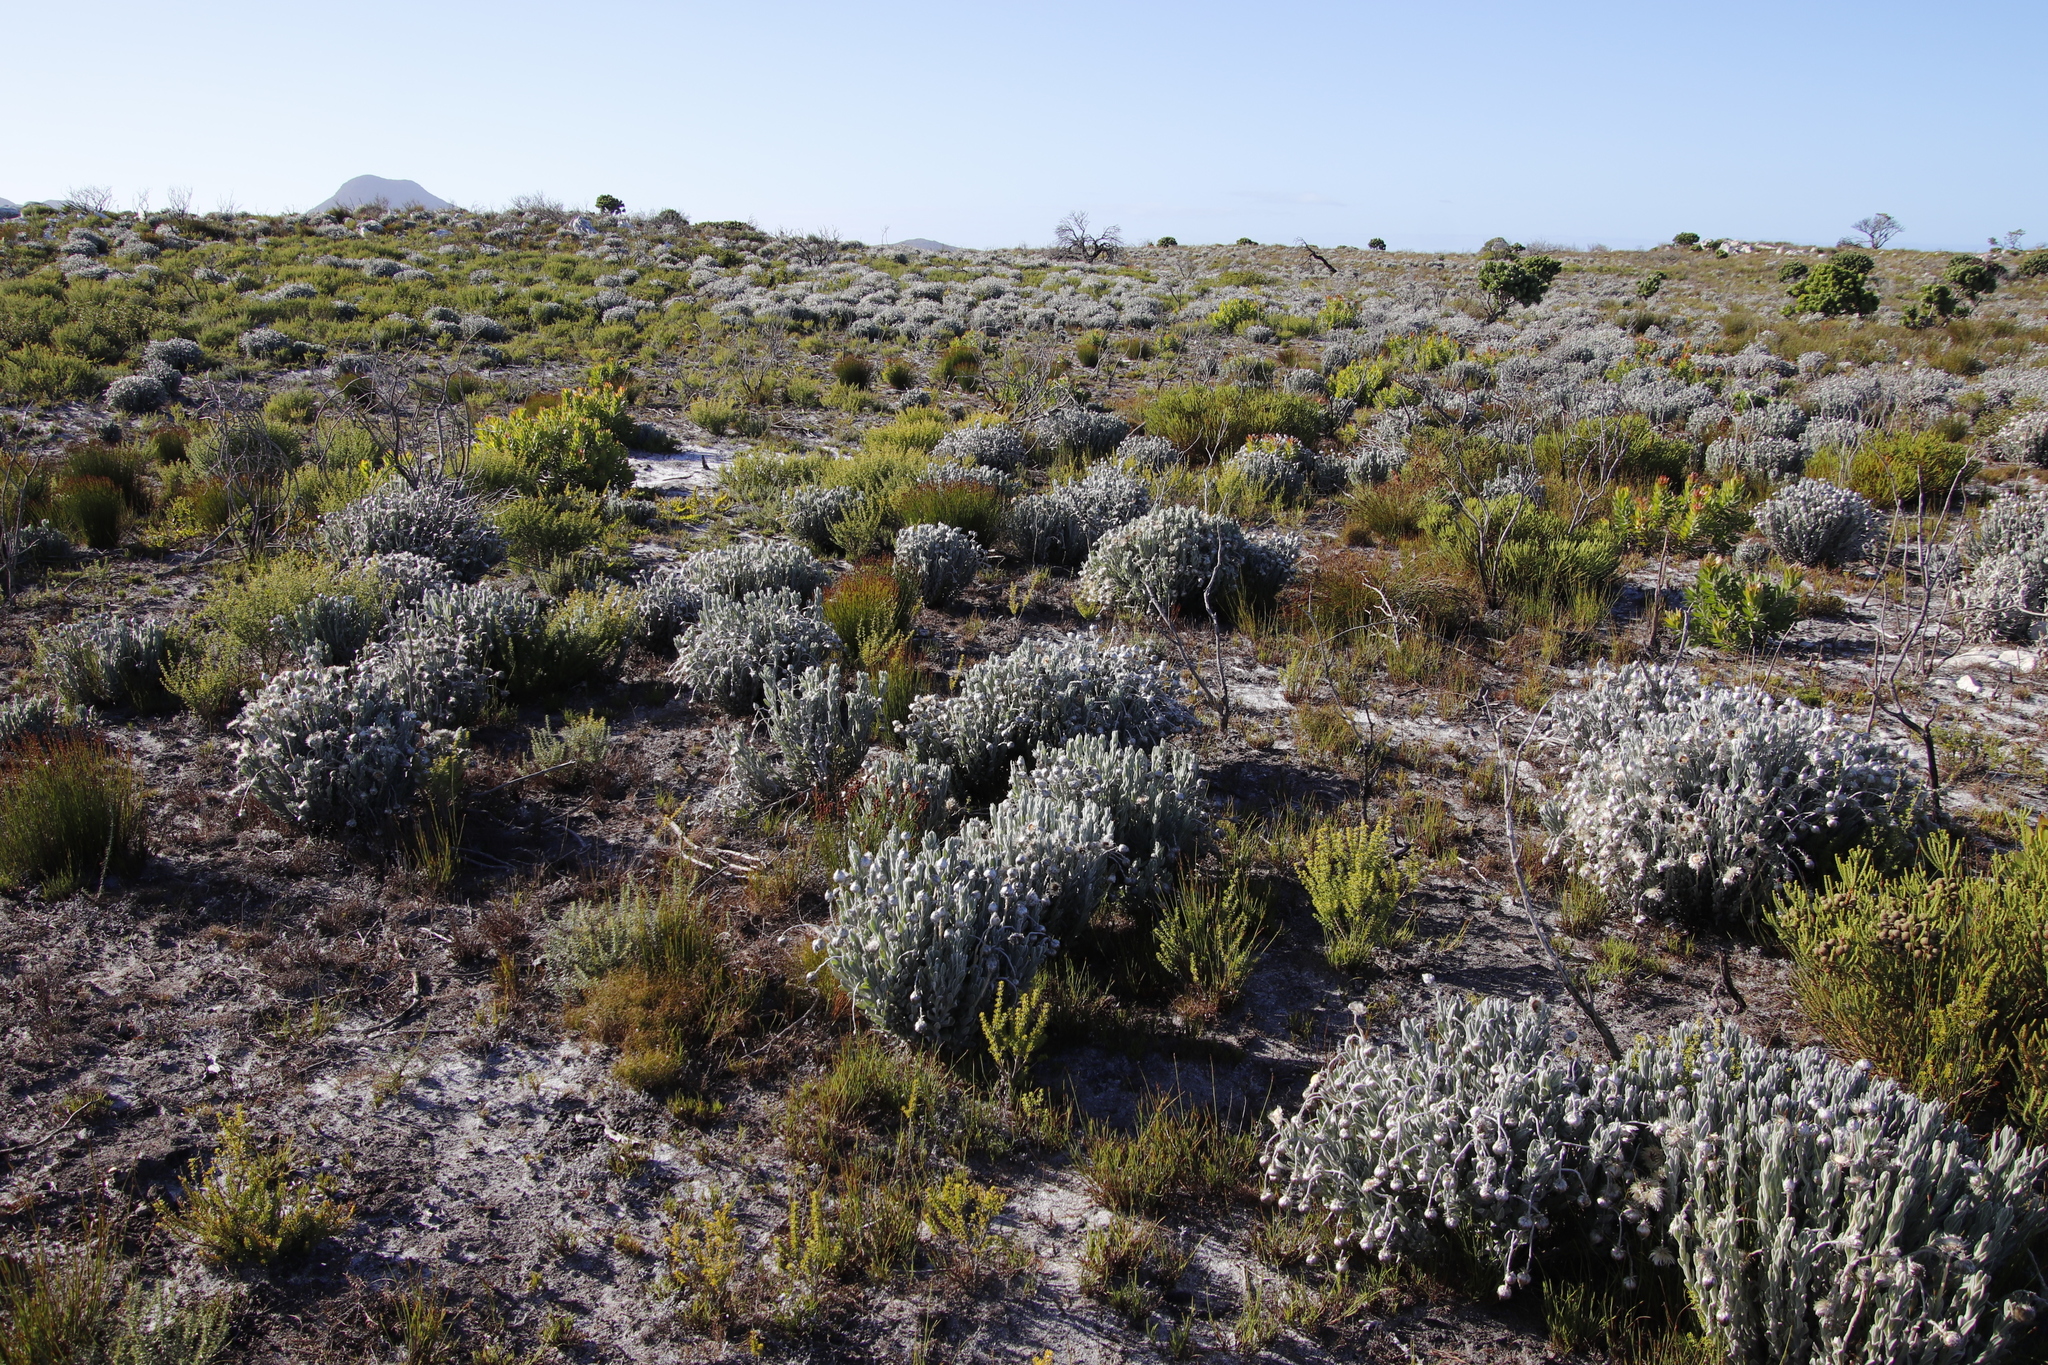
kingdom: Plantae
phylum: Tracheophyta
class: Magnoliopsida
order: Asterales
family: Asteraceae
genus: Syncarpha
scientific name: Syncarpha vestita
